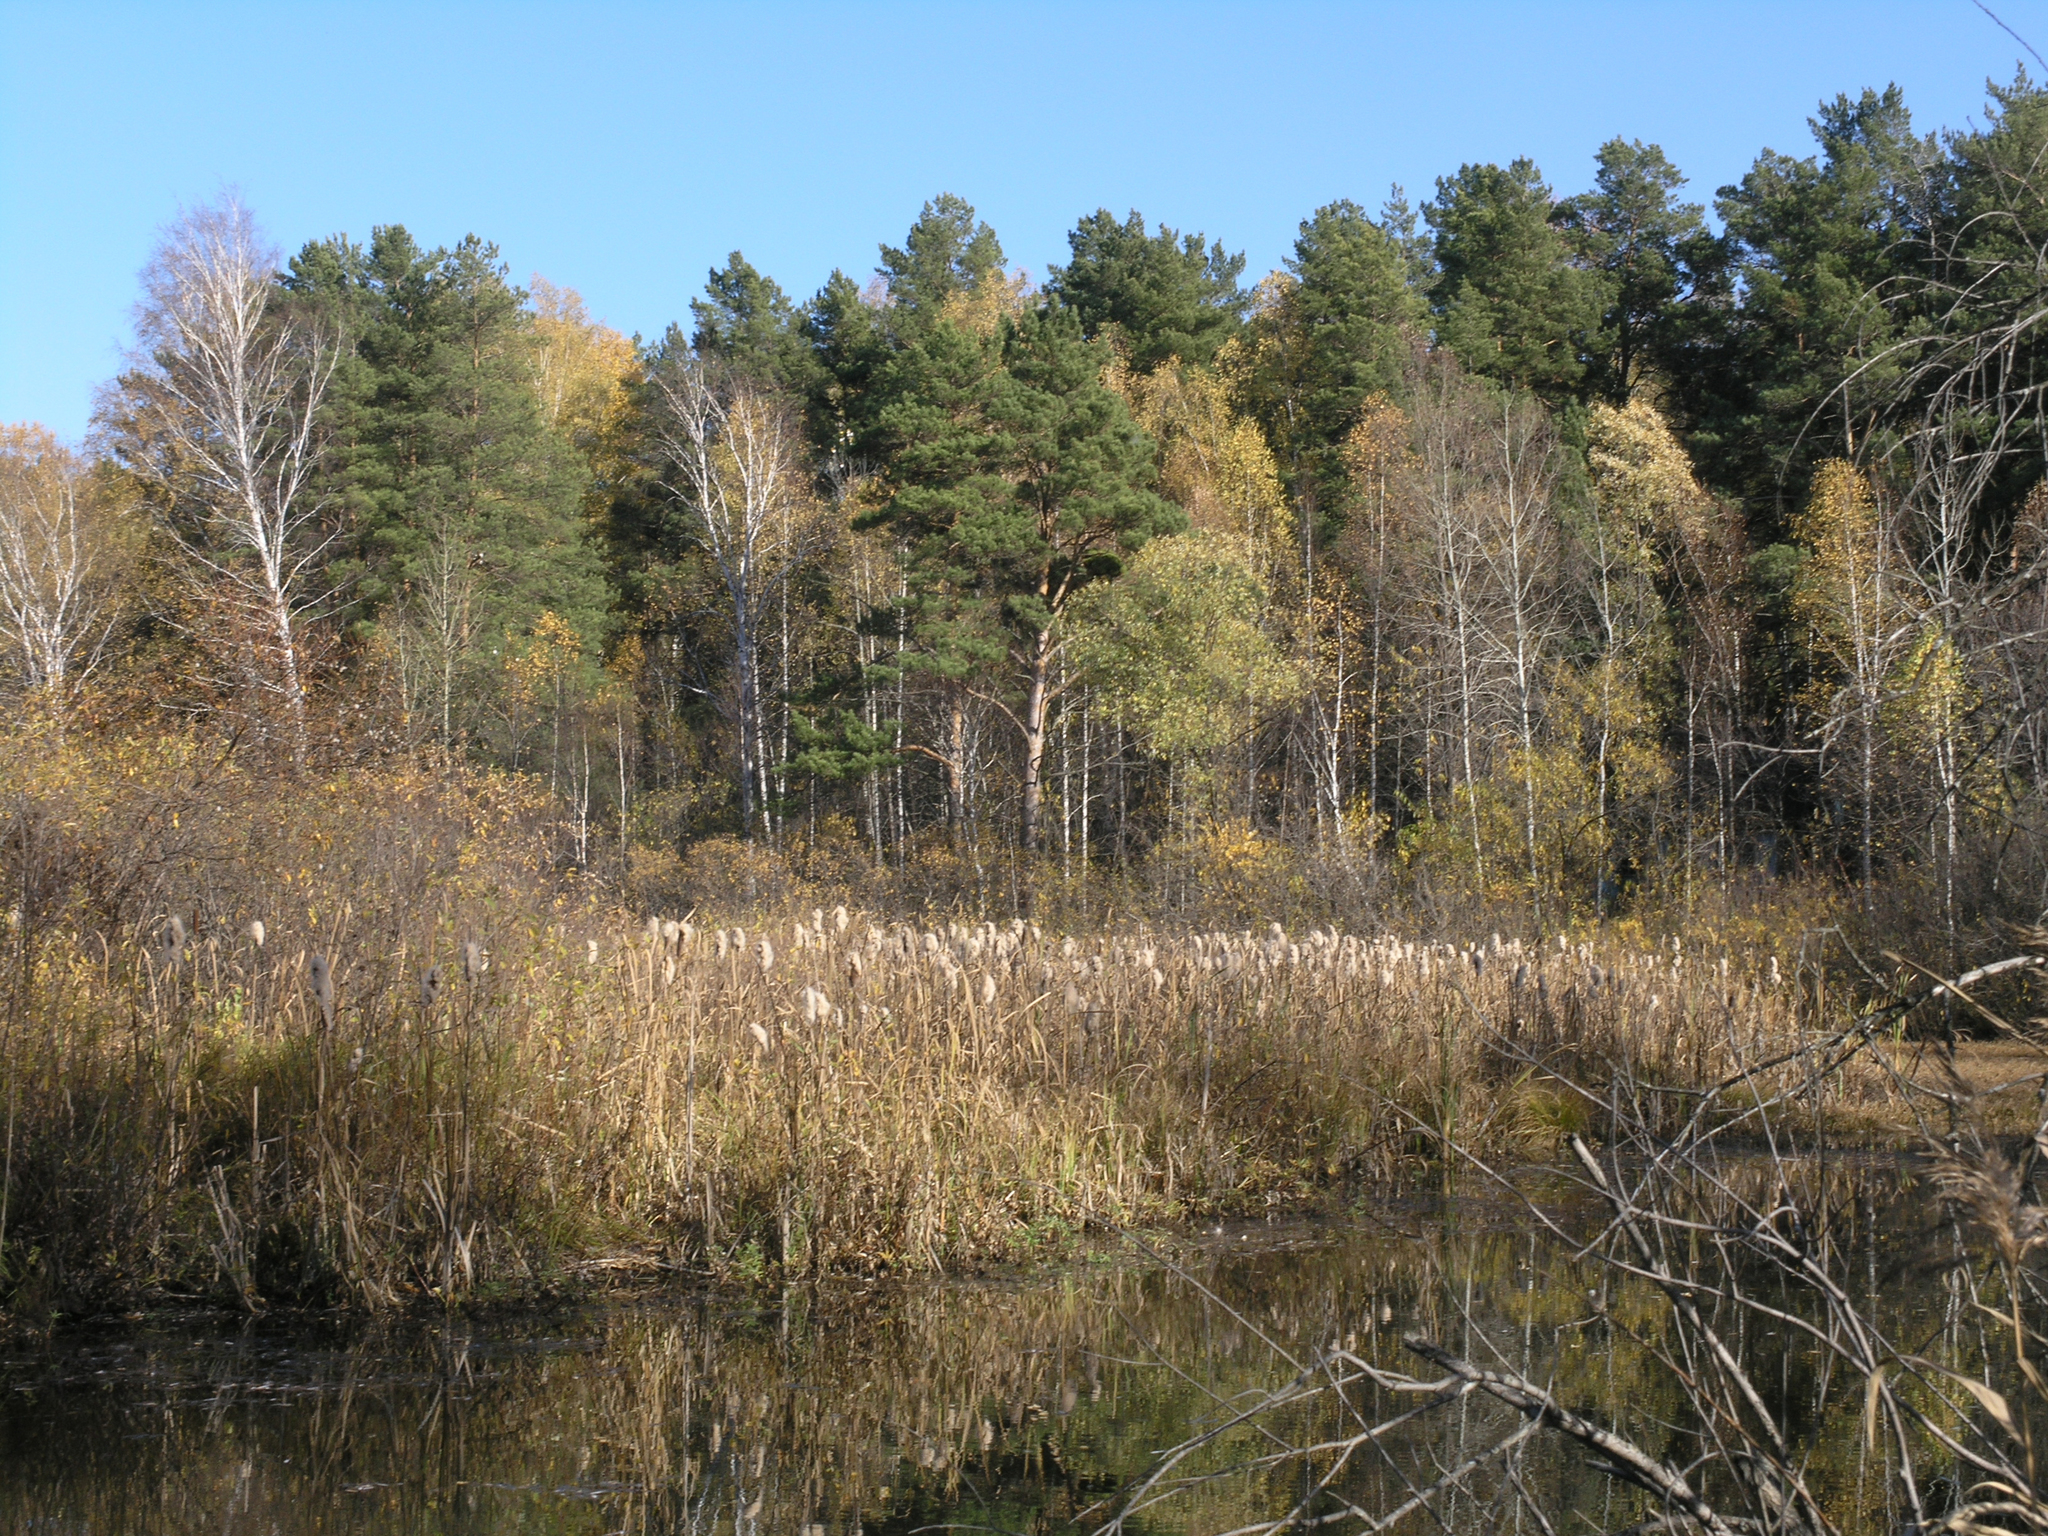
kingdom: Plantae
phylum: Tracheophyta
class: Pinopsida
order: Pinales
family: Pinaceae
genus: Pinus
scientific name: Pinus sylvestris
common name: Scots pine
